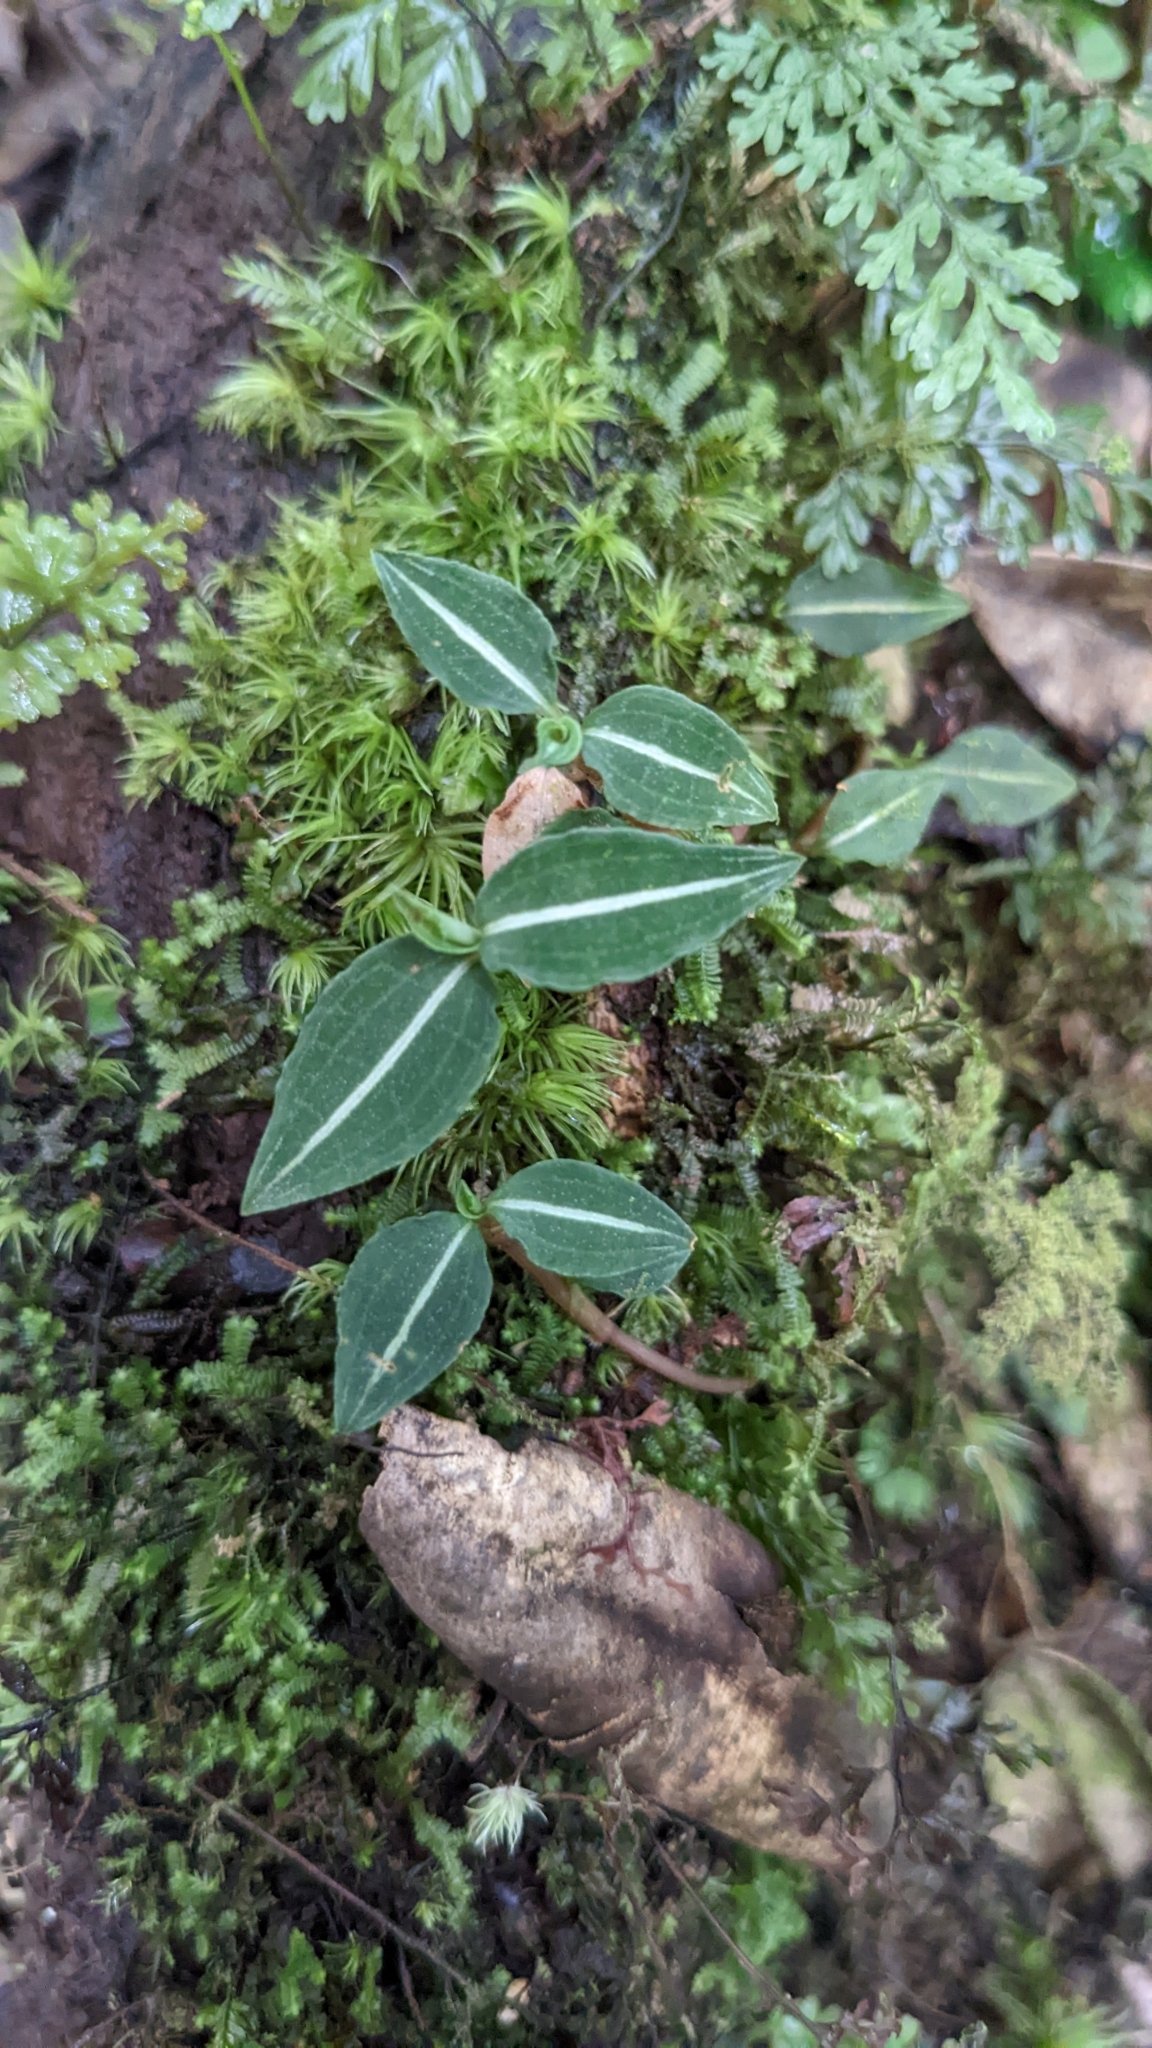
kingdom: Plantae
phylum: Tracheophyta
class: Liliopsida
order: Asparagales
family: Orchidaceae
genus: Goodyera
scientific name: Goodyera velutina
